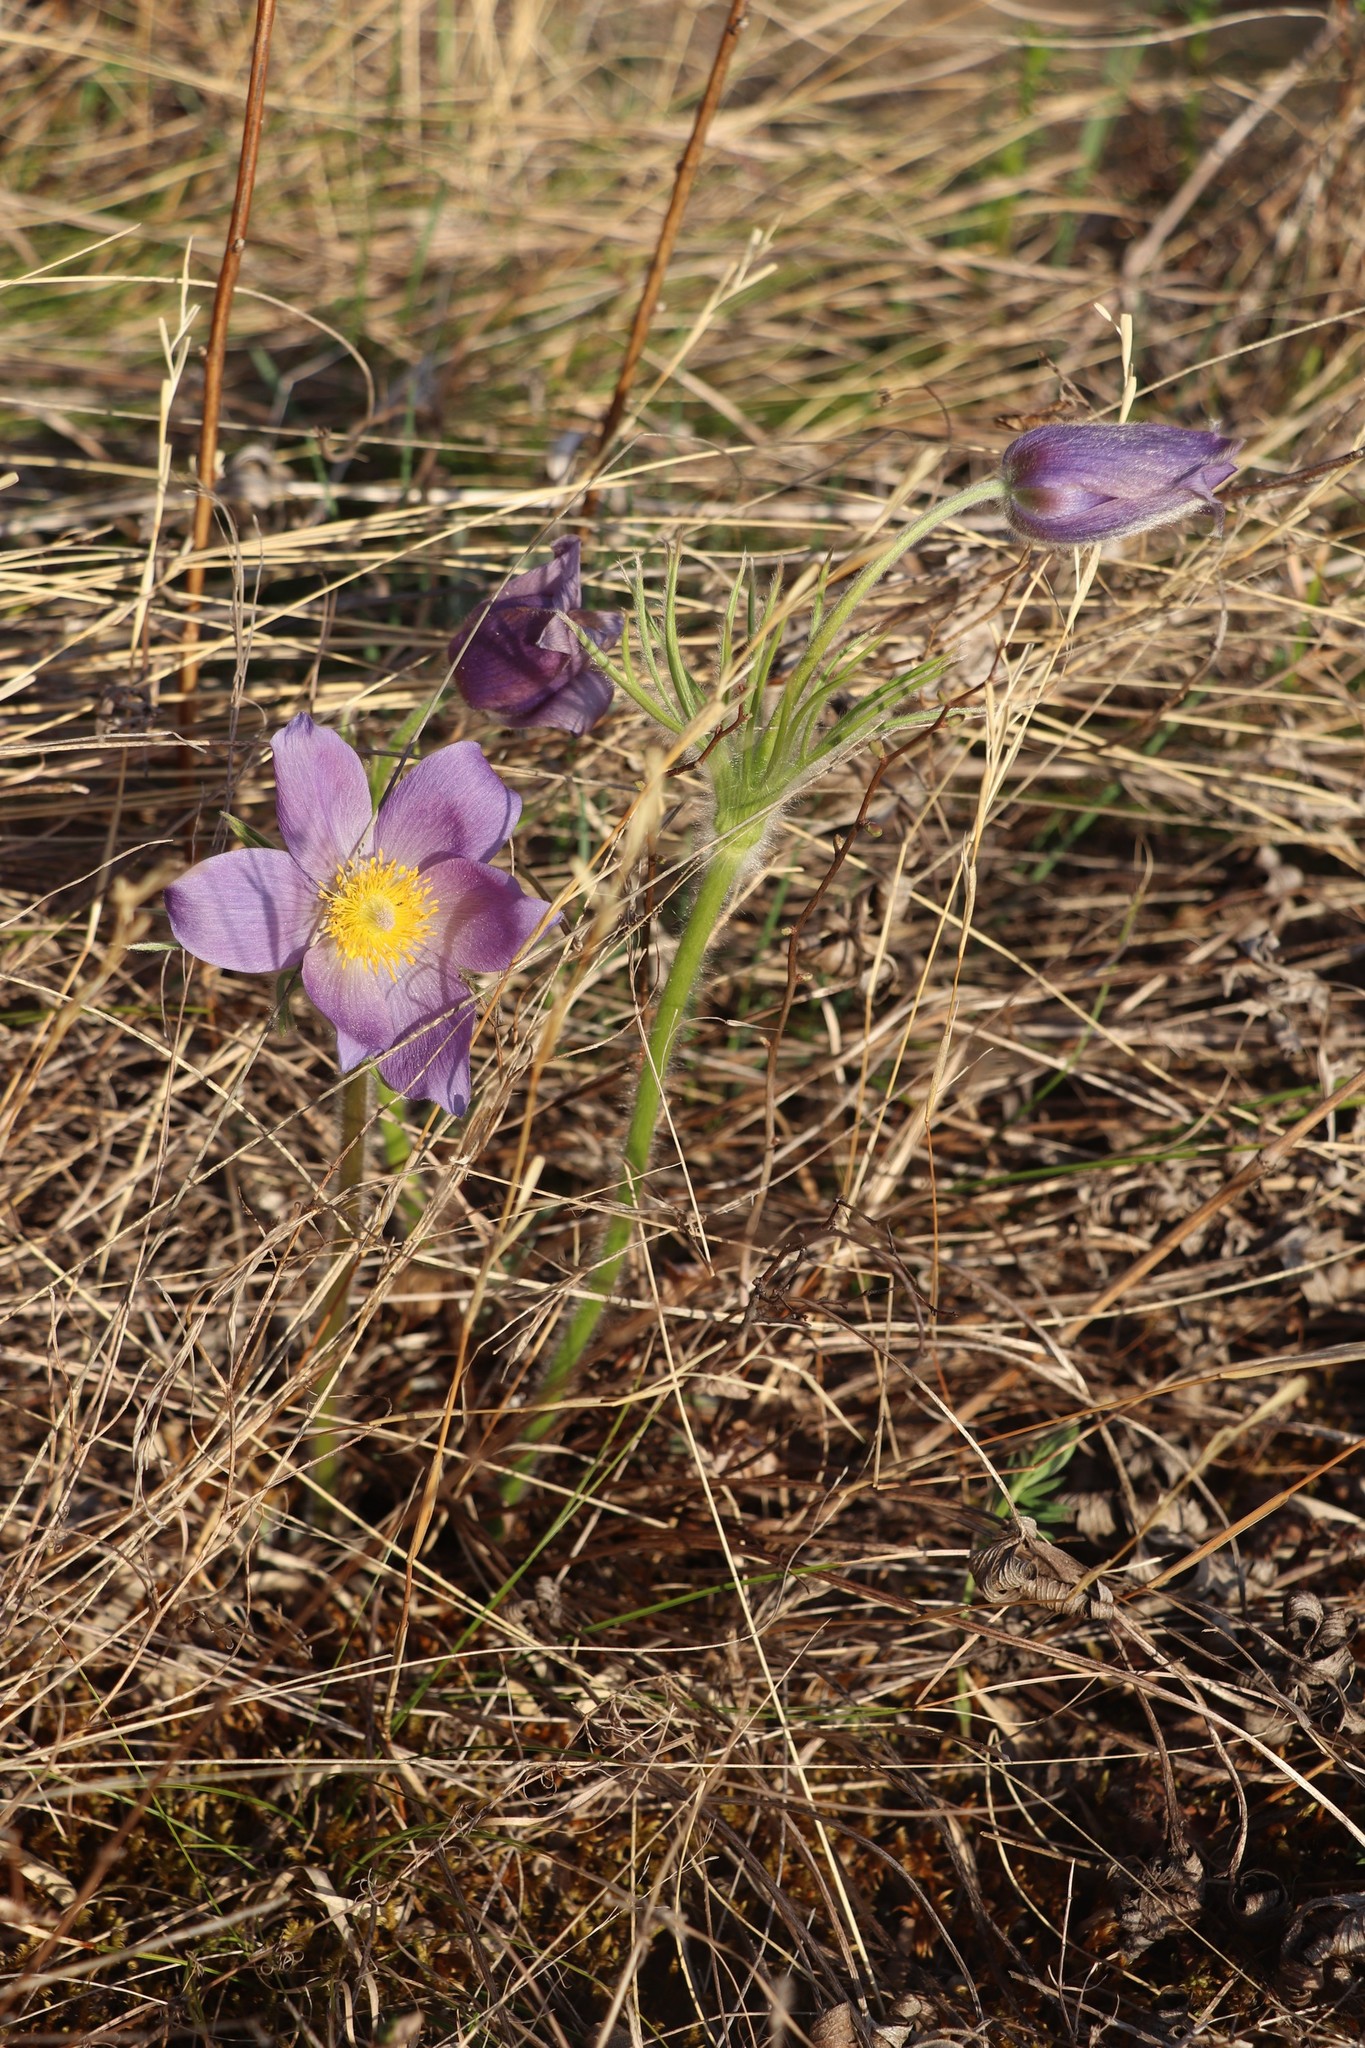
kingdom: Plantae
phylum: Tracheophyta
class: Magnoliopsida
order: Ranunculales
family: Ranunculaceae
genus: Pulsatilla
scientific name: Pulsatilla patens
